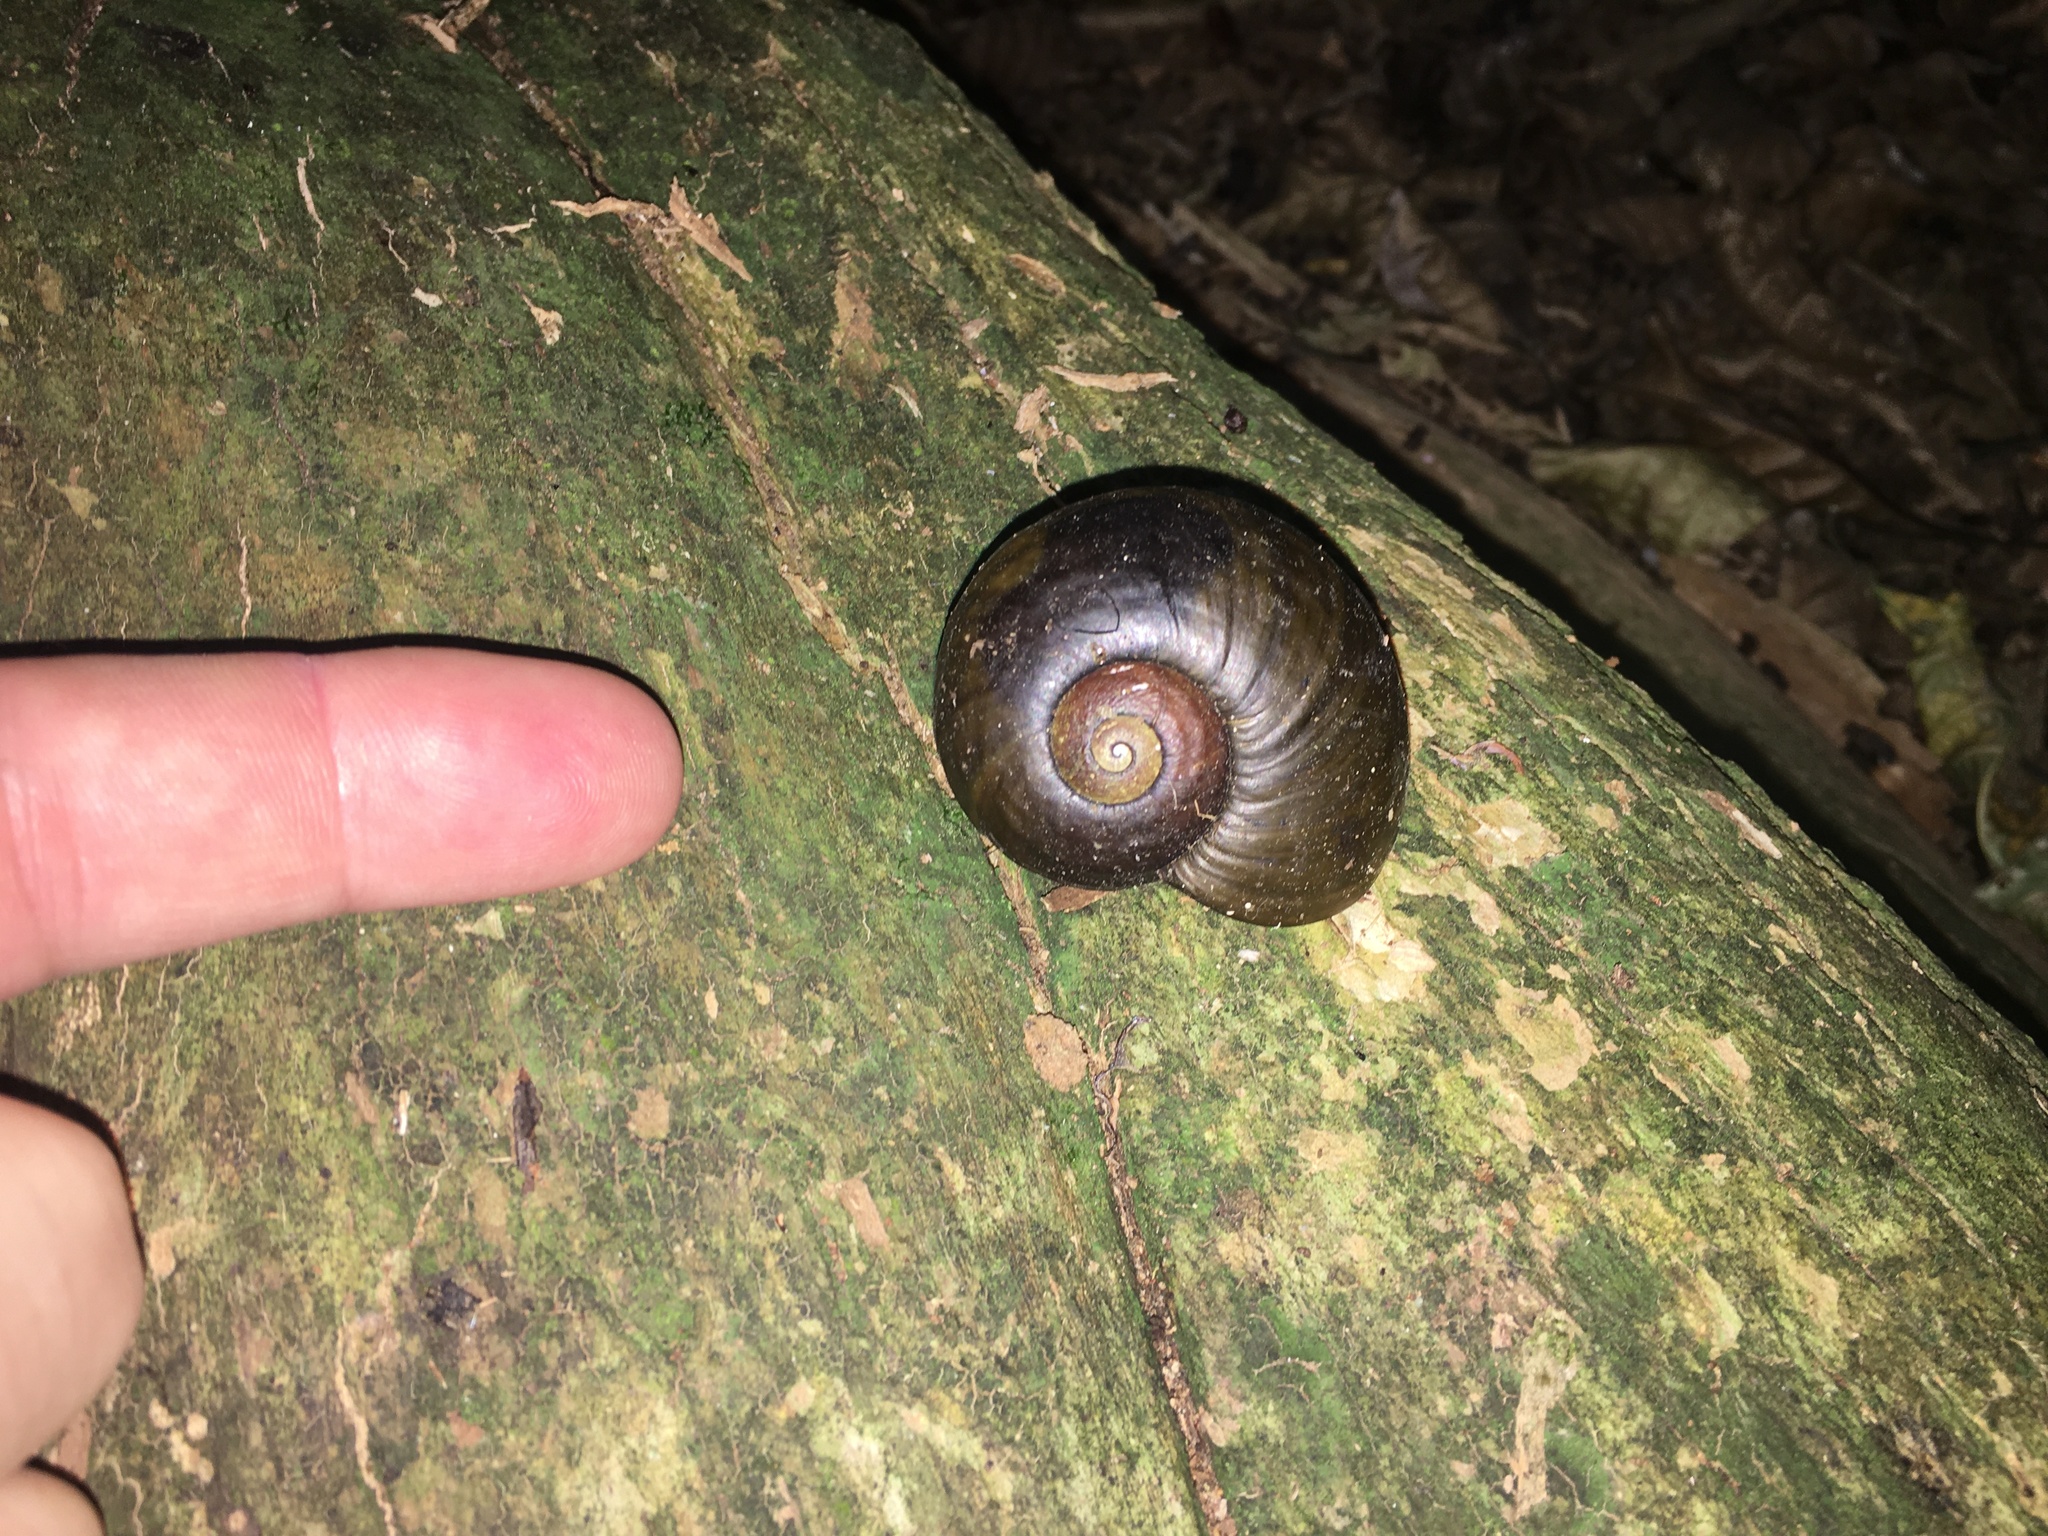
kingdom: Animalia
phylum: Mollusca
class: Gastropoda
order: Stylommatophora
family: Rhytididae
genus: Paryphanta
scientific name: Paryphanta busbyi
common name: Kauri snail
